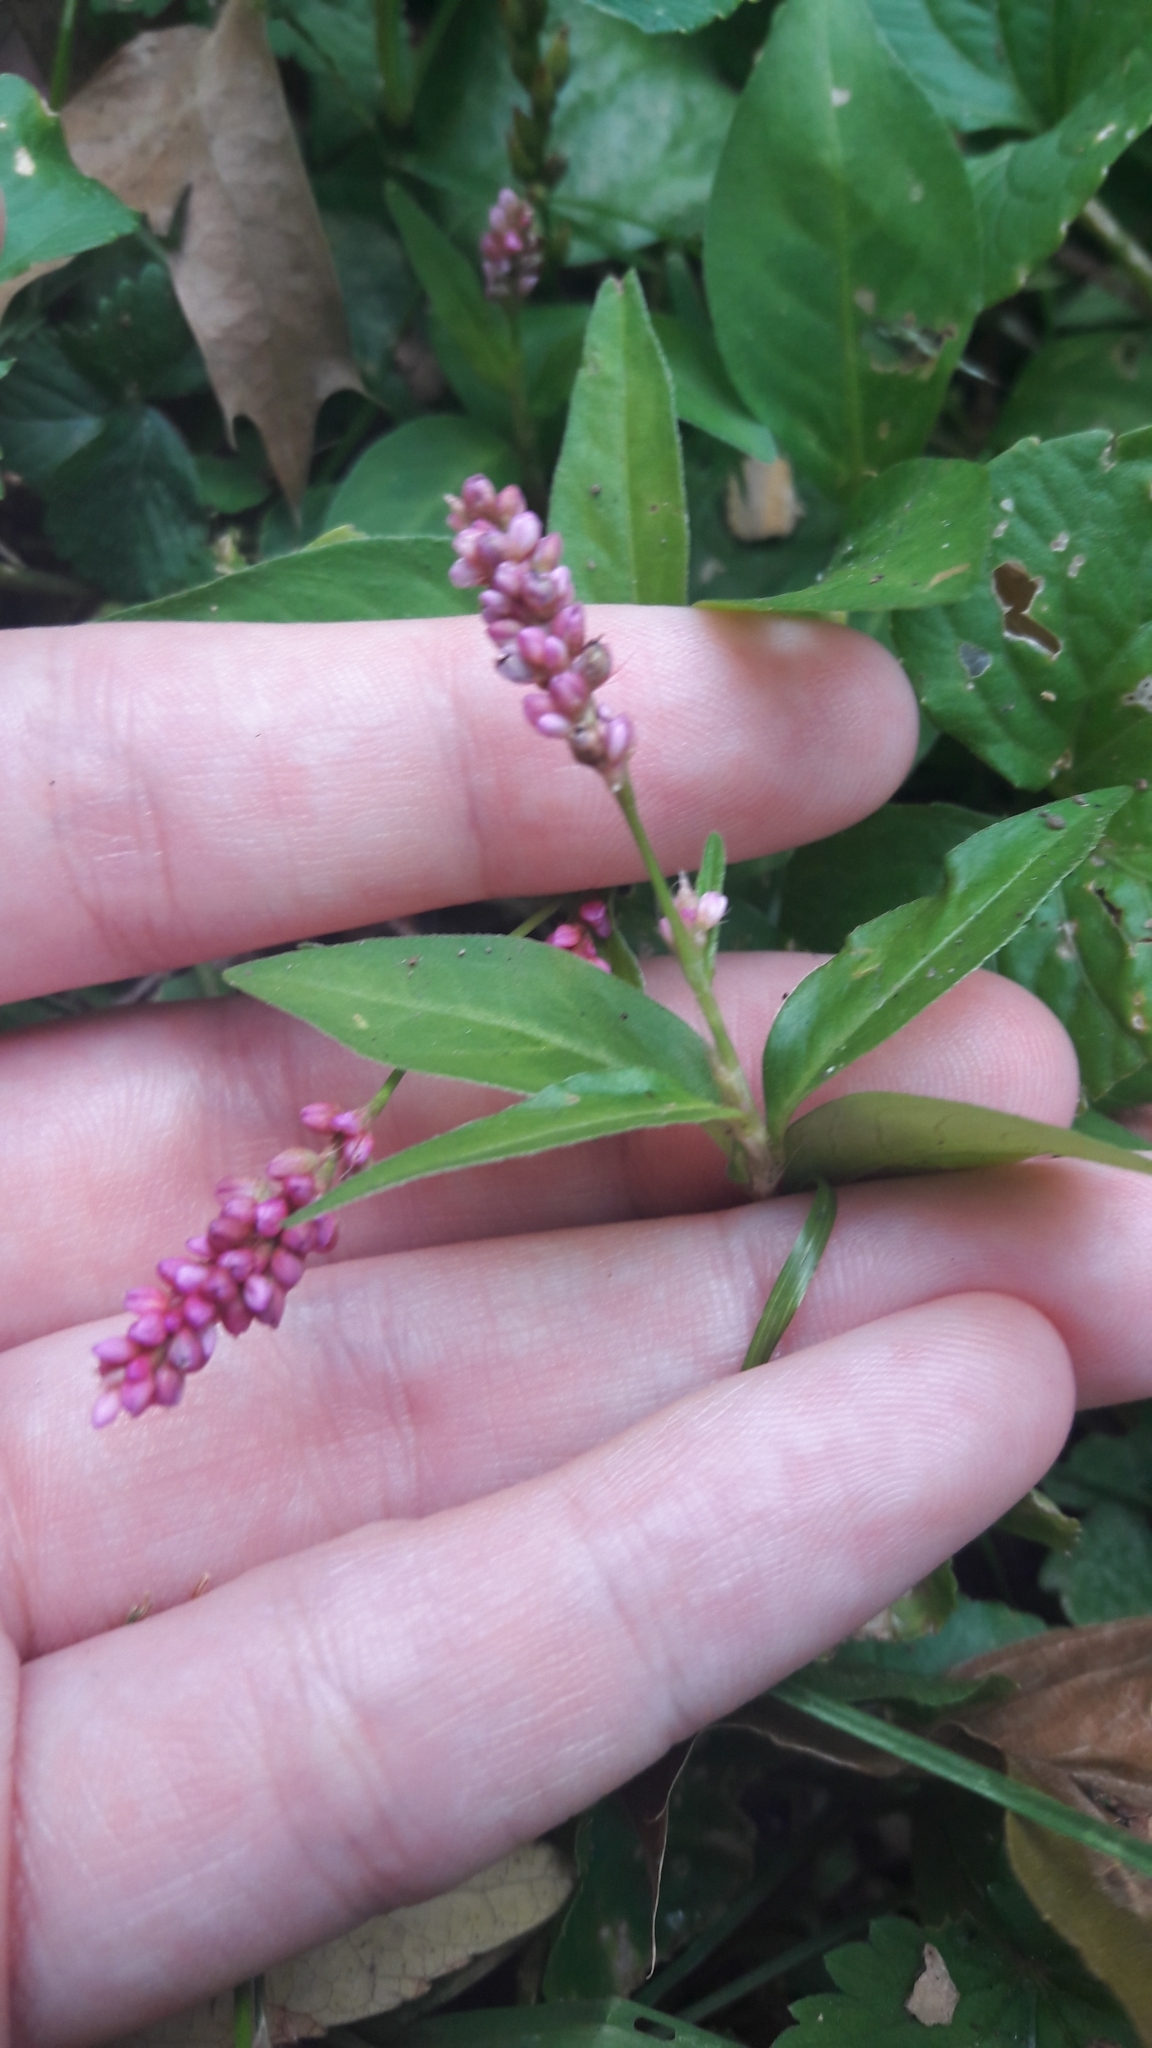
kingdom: Plantae
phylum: Tracheophyta
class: Magnoliopsida
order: Caryophyllales
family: Polygonaceae
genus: Persicaria
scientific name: Persicaria longiseta
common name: Bristly lady's-thumb
